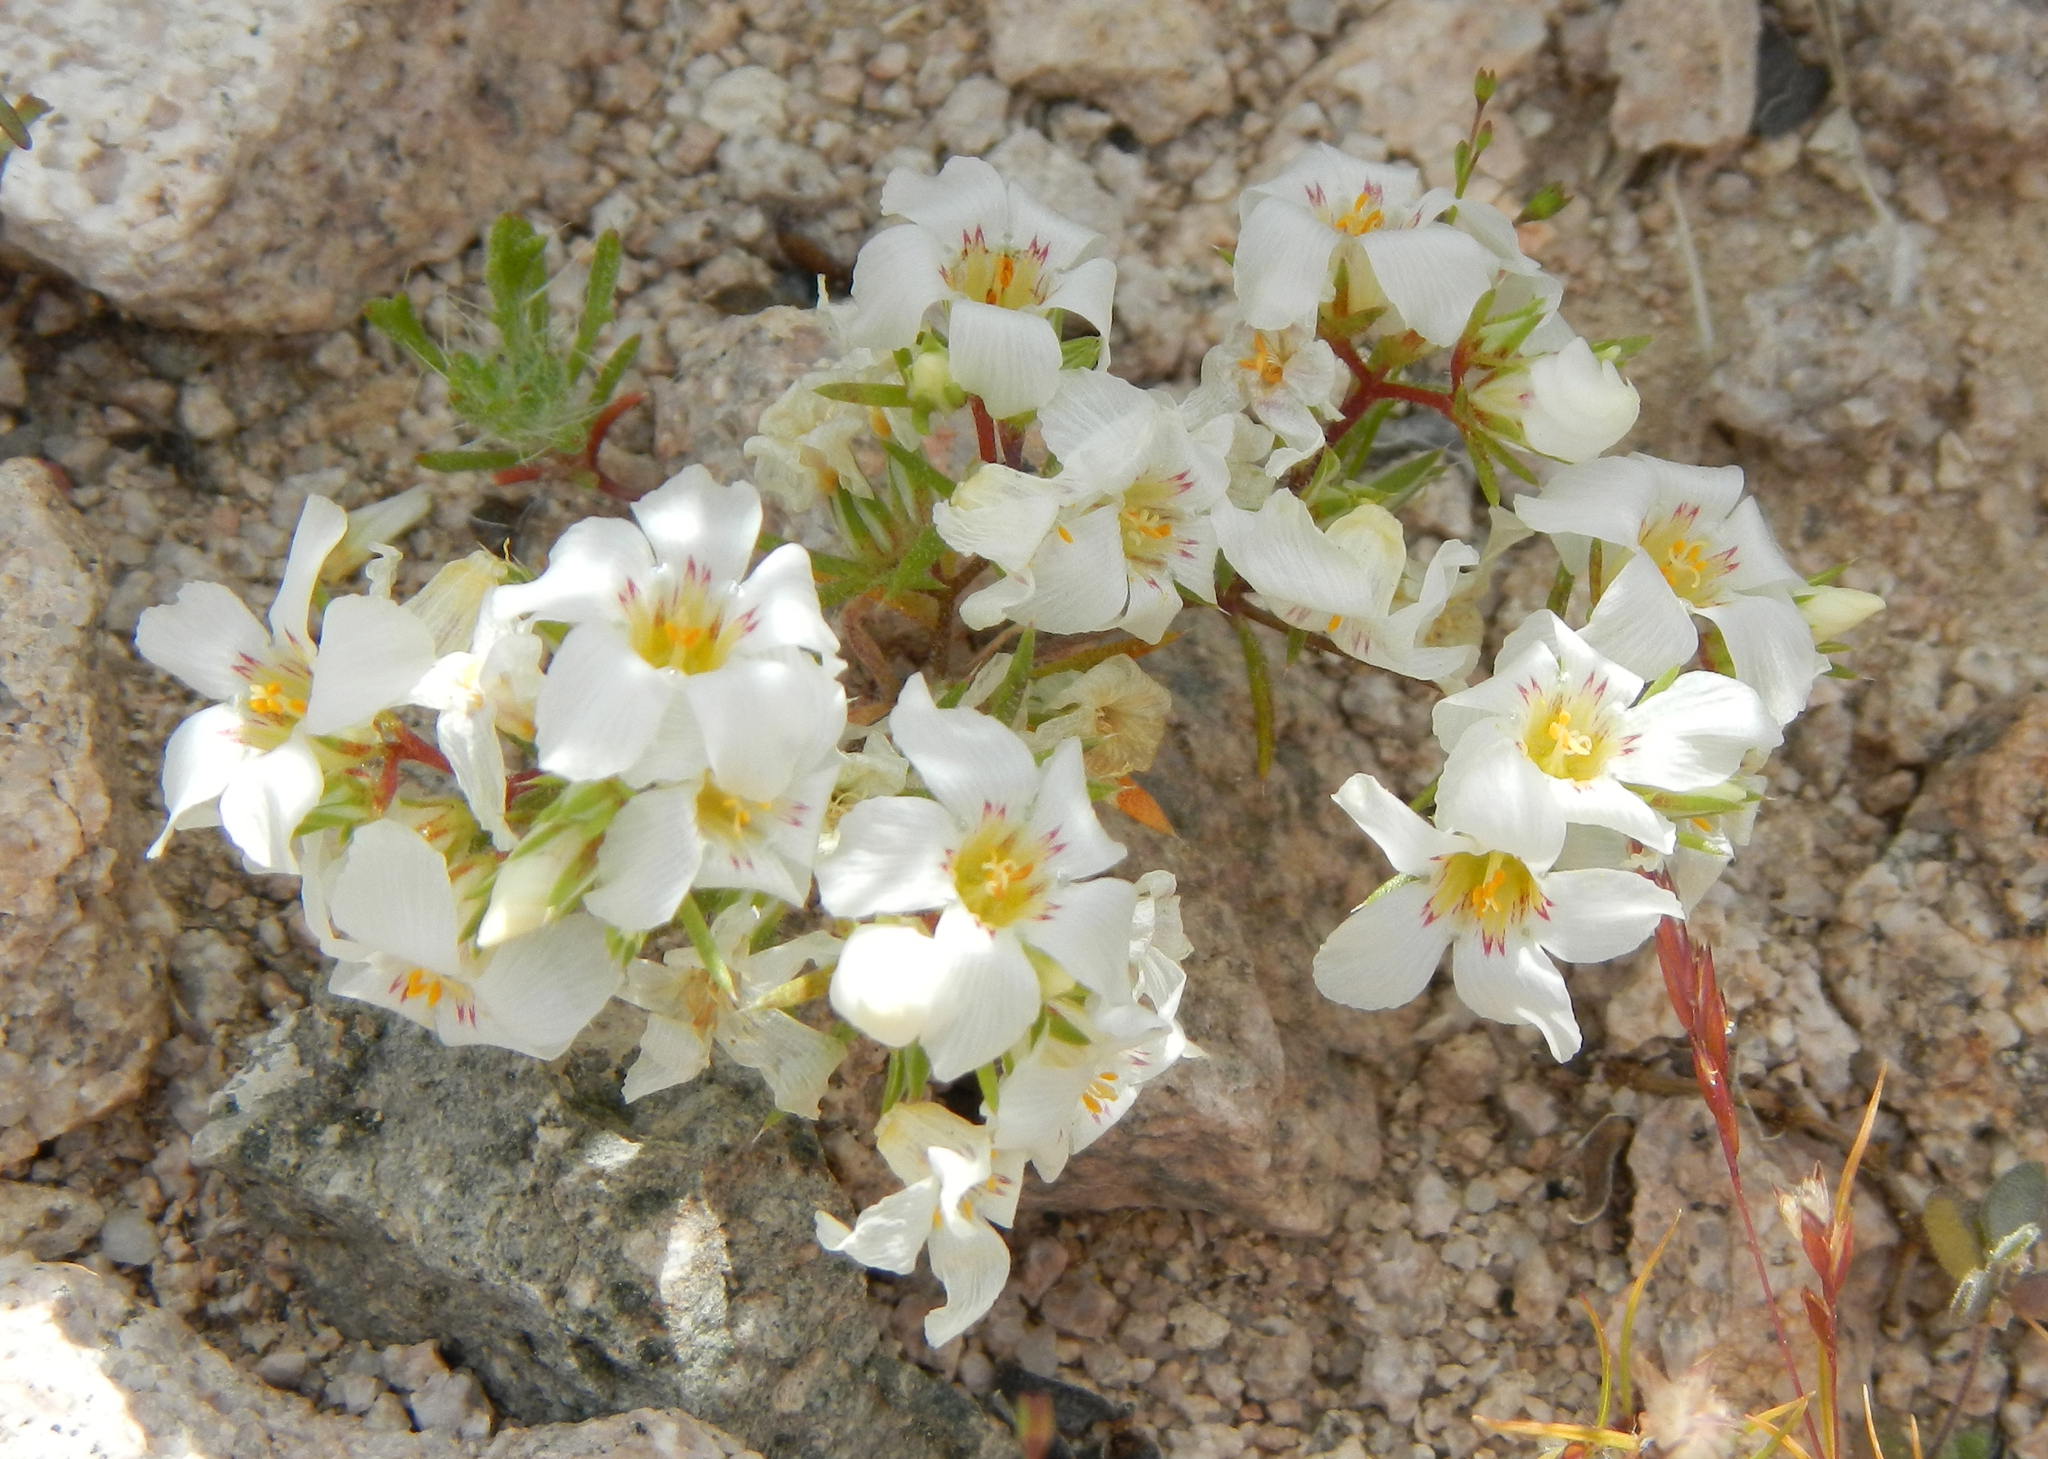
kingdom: Plantae
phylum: Tracheophyta
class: Magnoliopsida
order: Ericales
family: Polemoniaceae
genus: Linanthus
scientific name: Linanthus demissus
